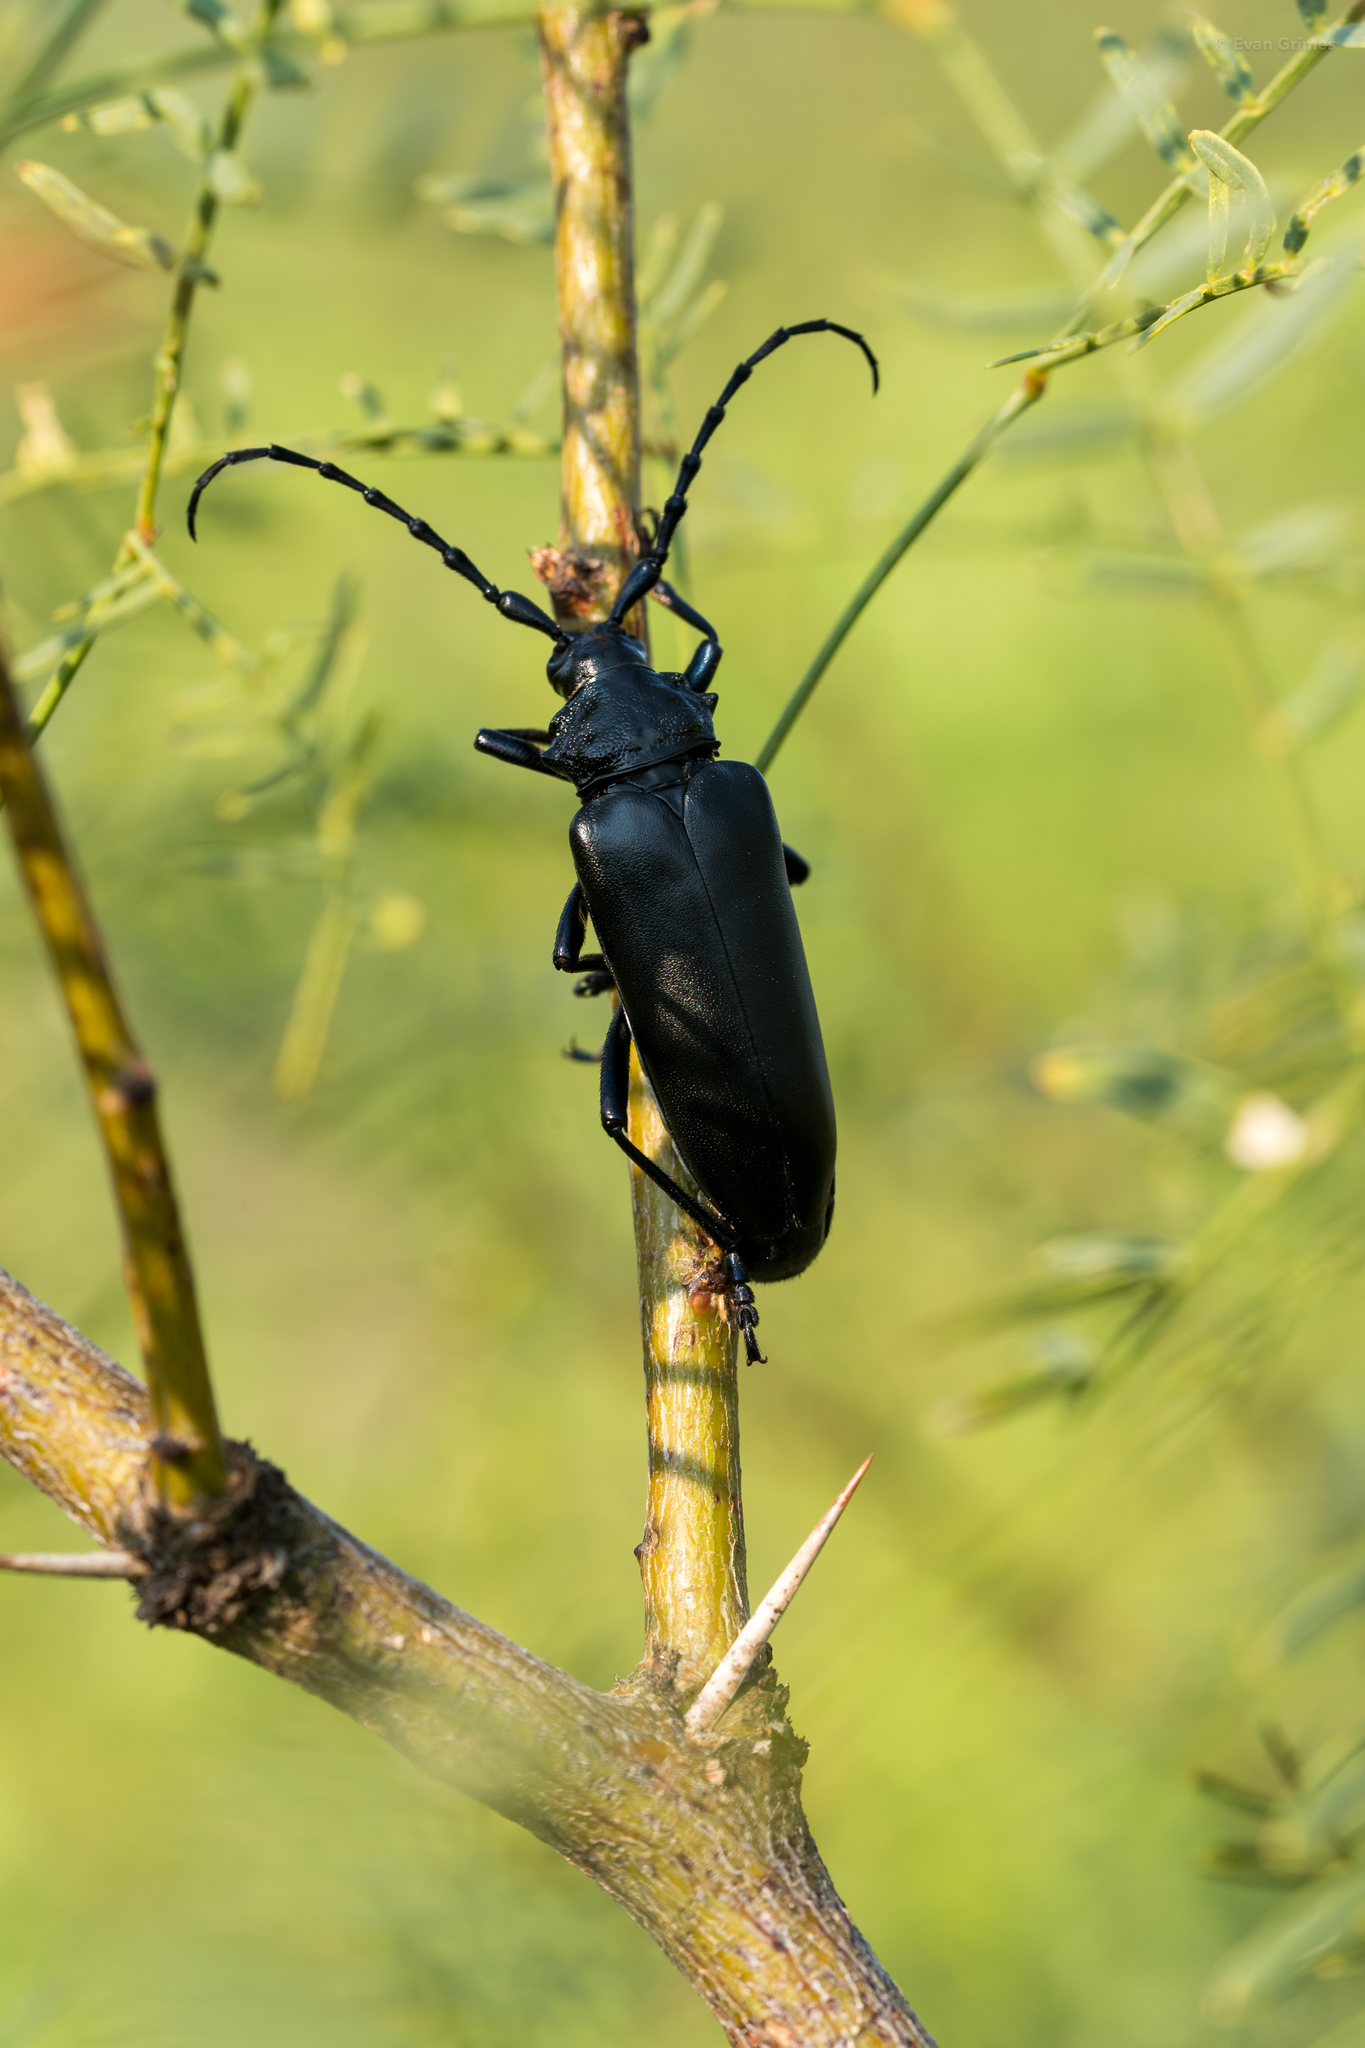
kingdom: Animalia
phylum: Arthropoda
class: Insecta
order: Coleoptera
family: Cerambycidae
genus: Stenaspis
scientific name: Stenaspis solitaria
